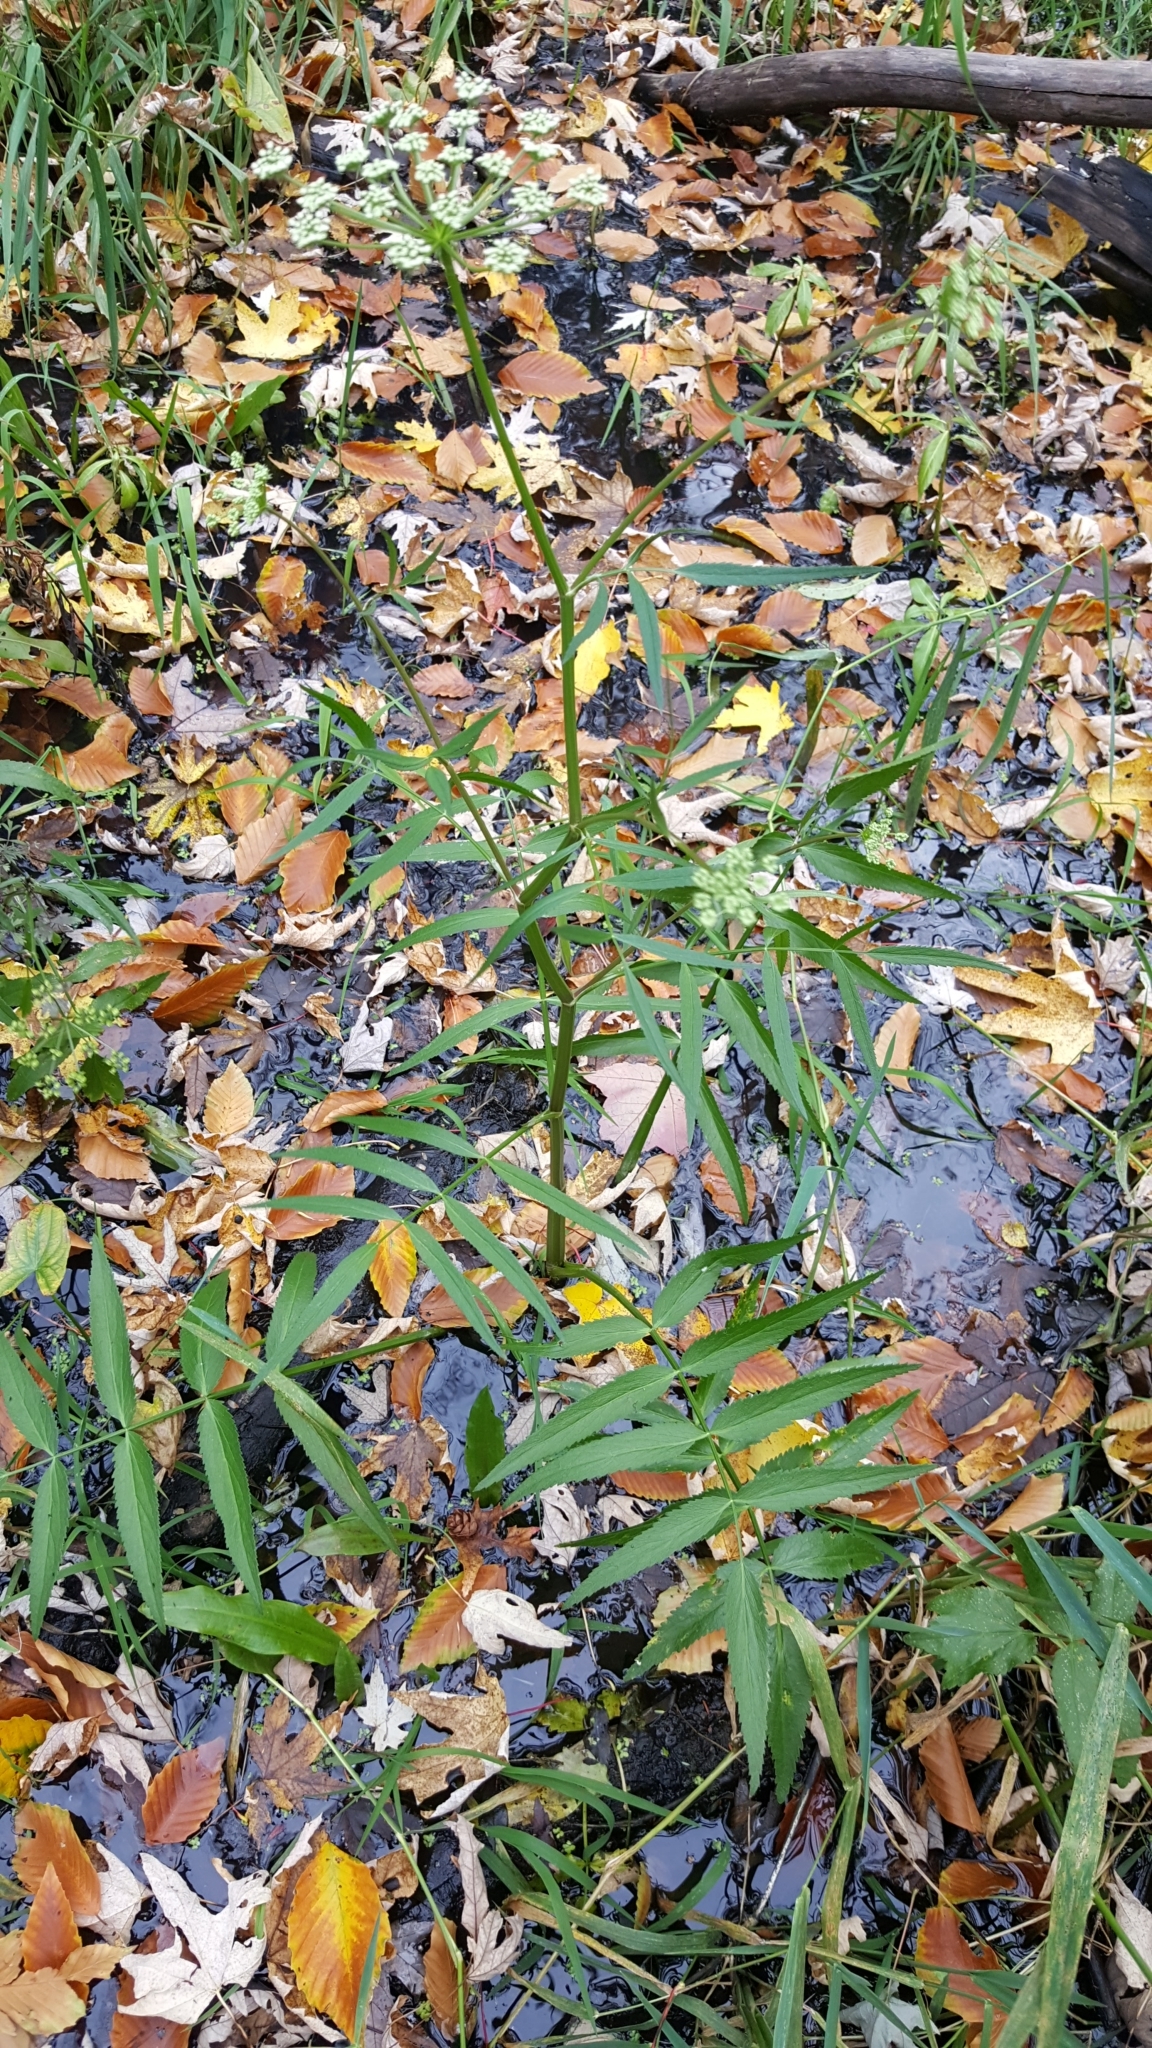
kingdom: Plantae
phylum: Tracheophyta
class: Magnoliopsida
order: Apiales
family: Apiaceae
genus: Sium
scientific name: Sium suave
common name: Hemlock water-parsnip
